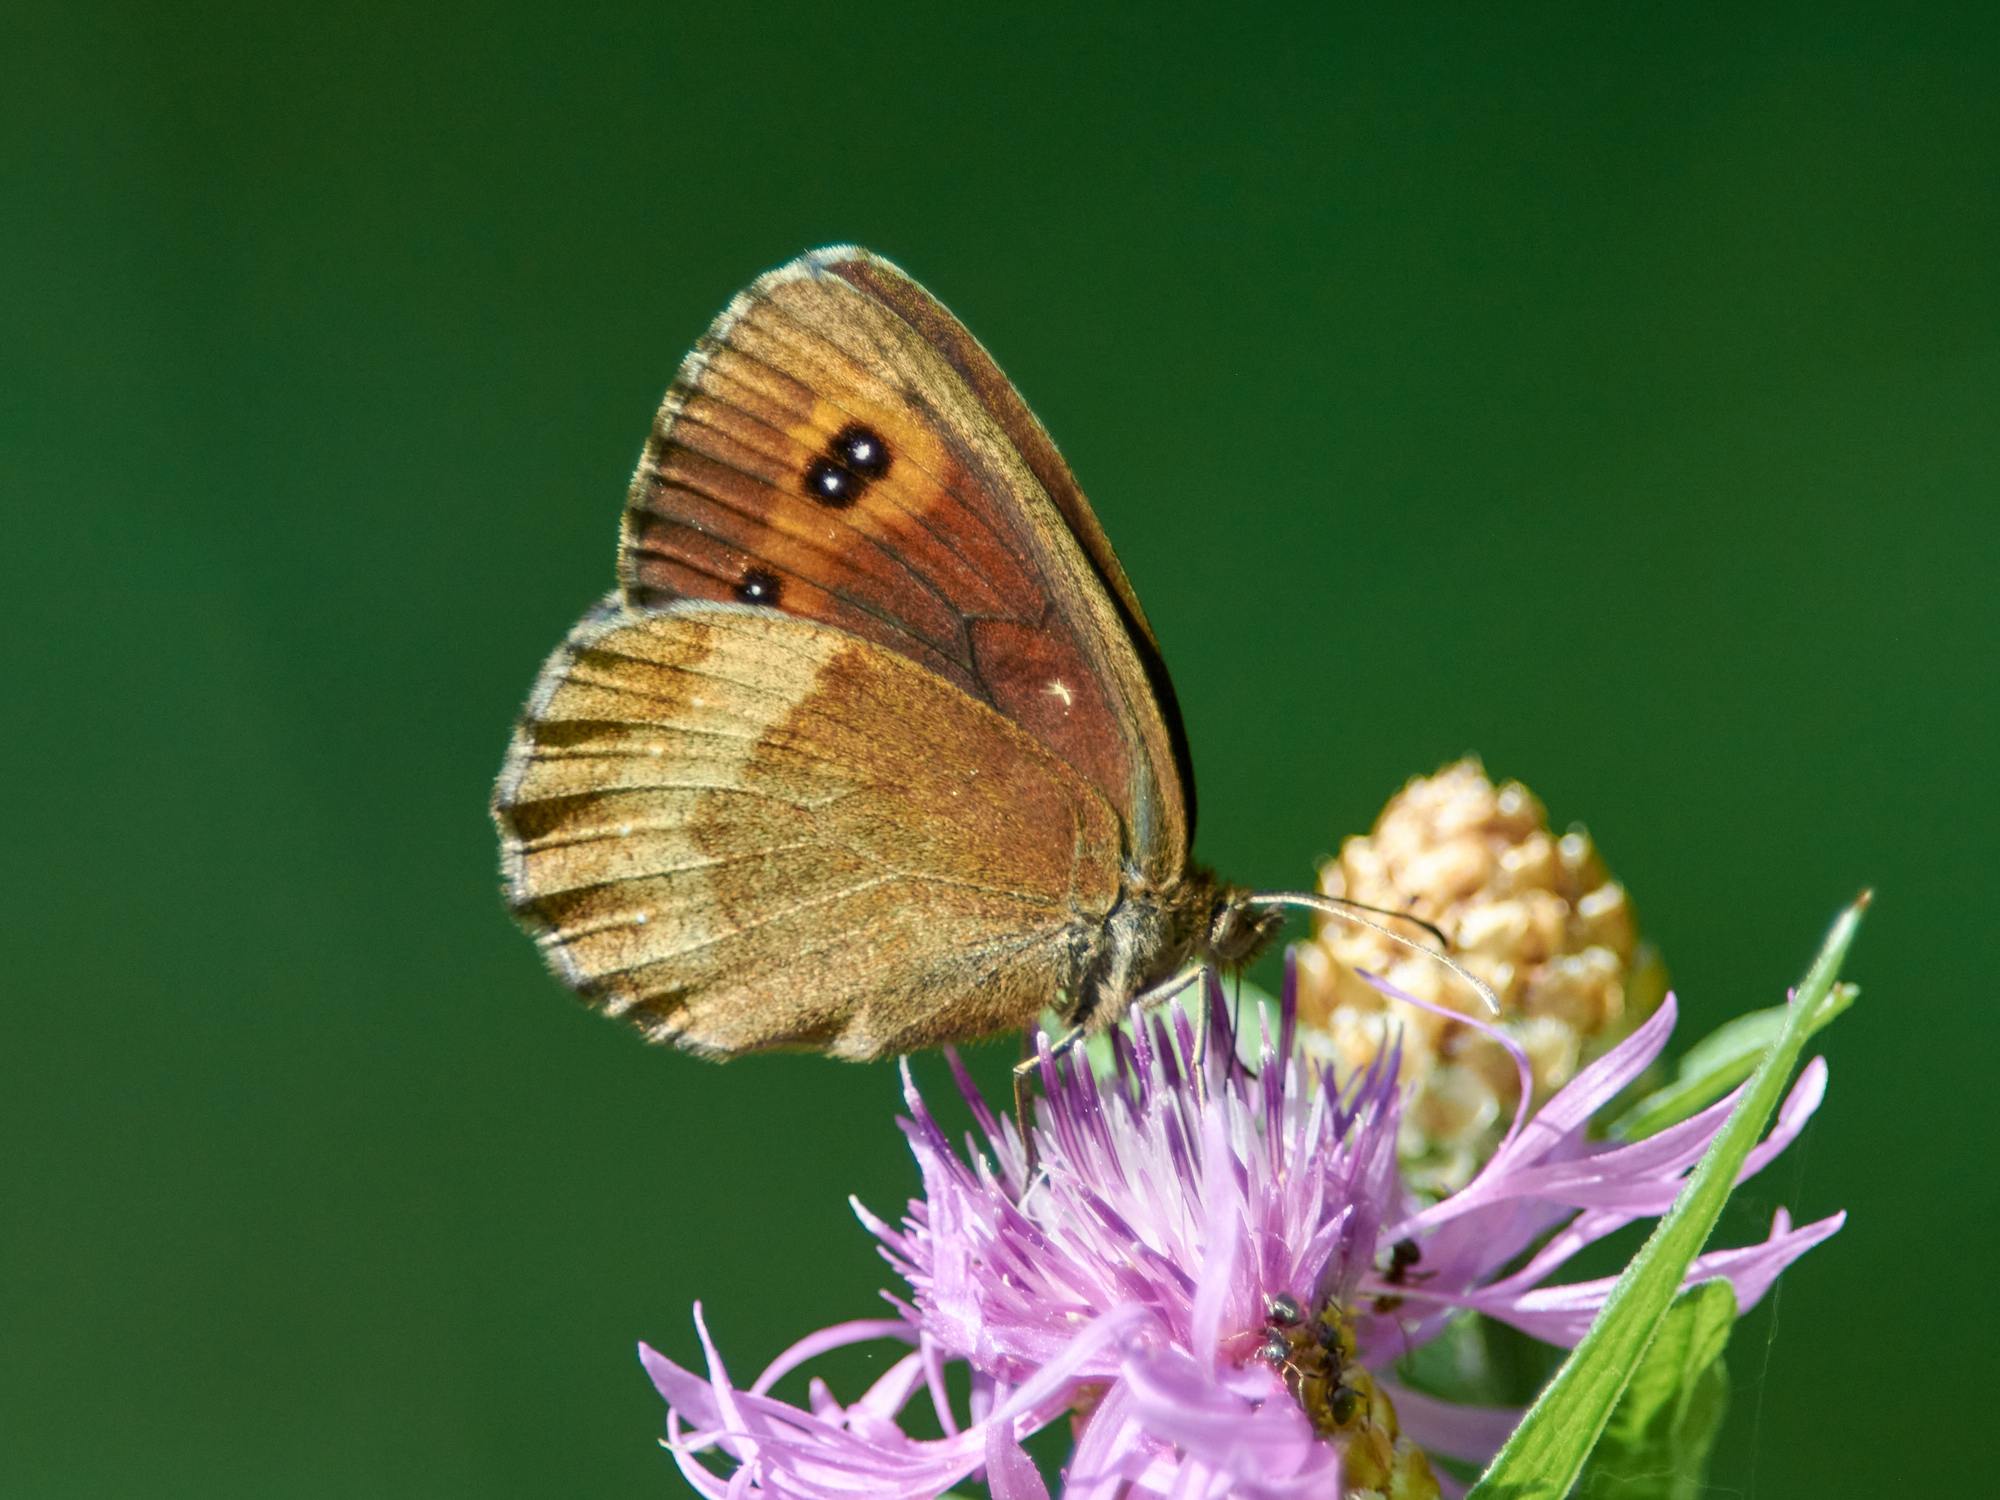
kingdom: Animalia
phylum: Arthropoda
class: Insecta
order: Lepidoptera
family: Nymphalidae
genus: Erebia
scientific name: Erebia aethiops
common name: Scotch argus
